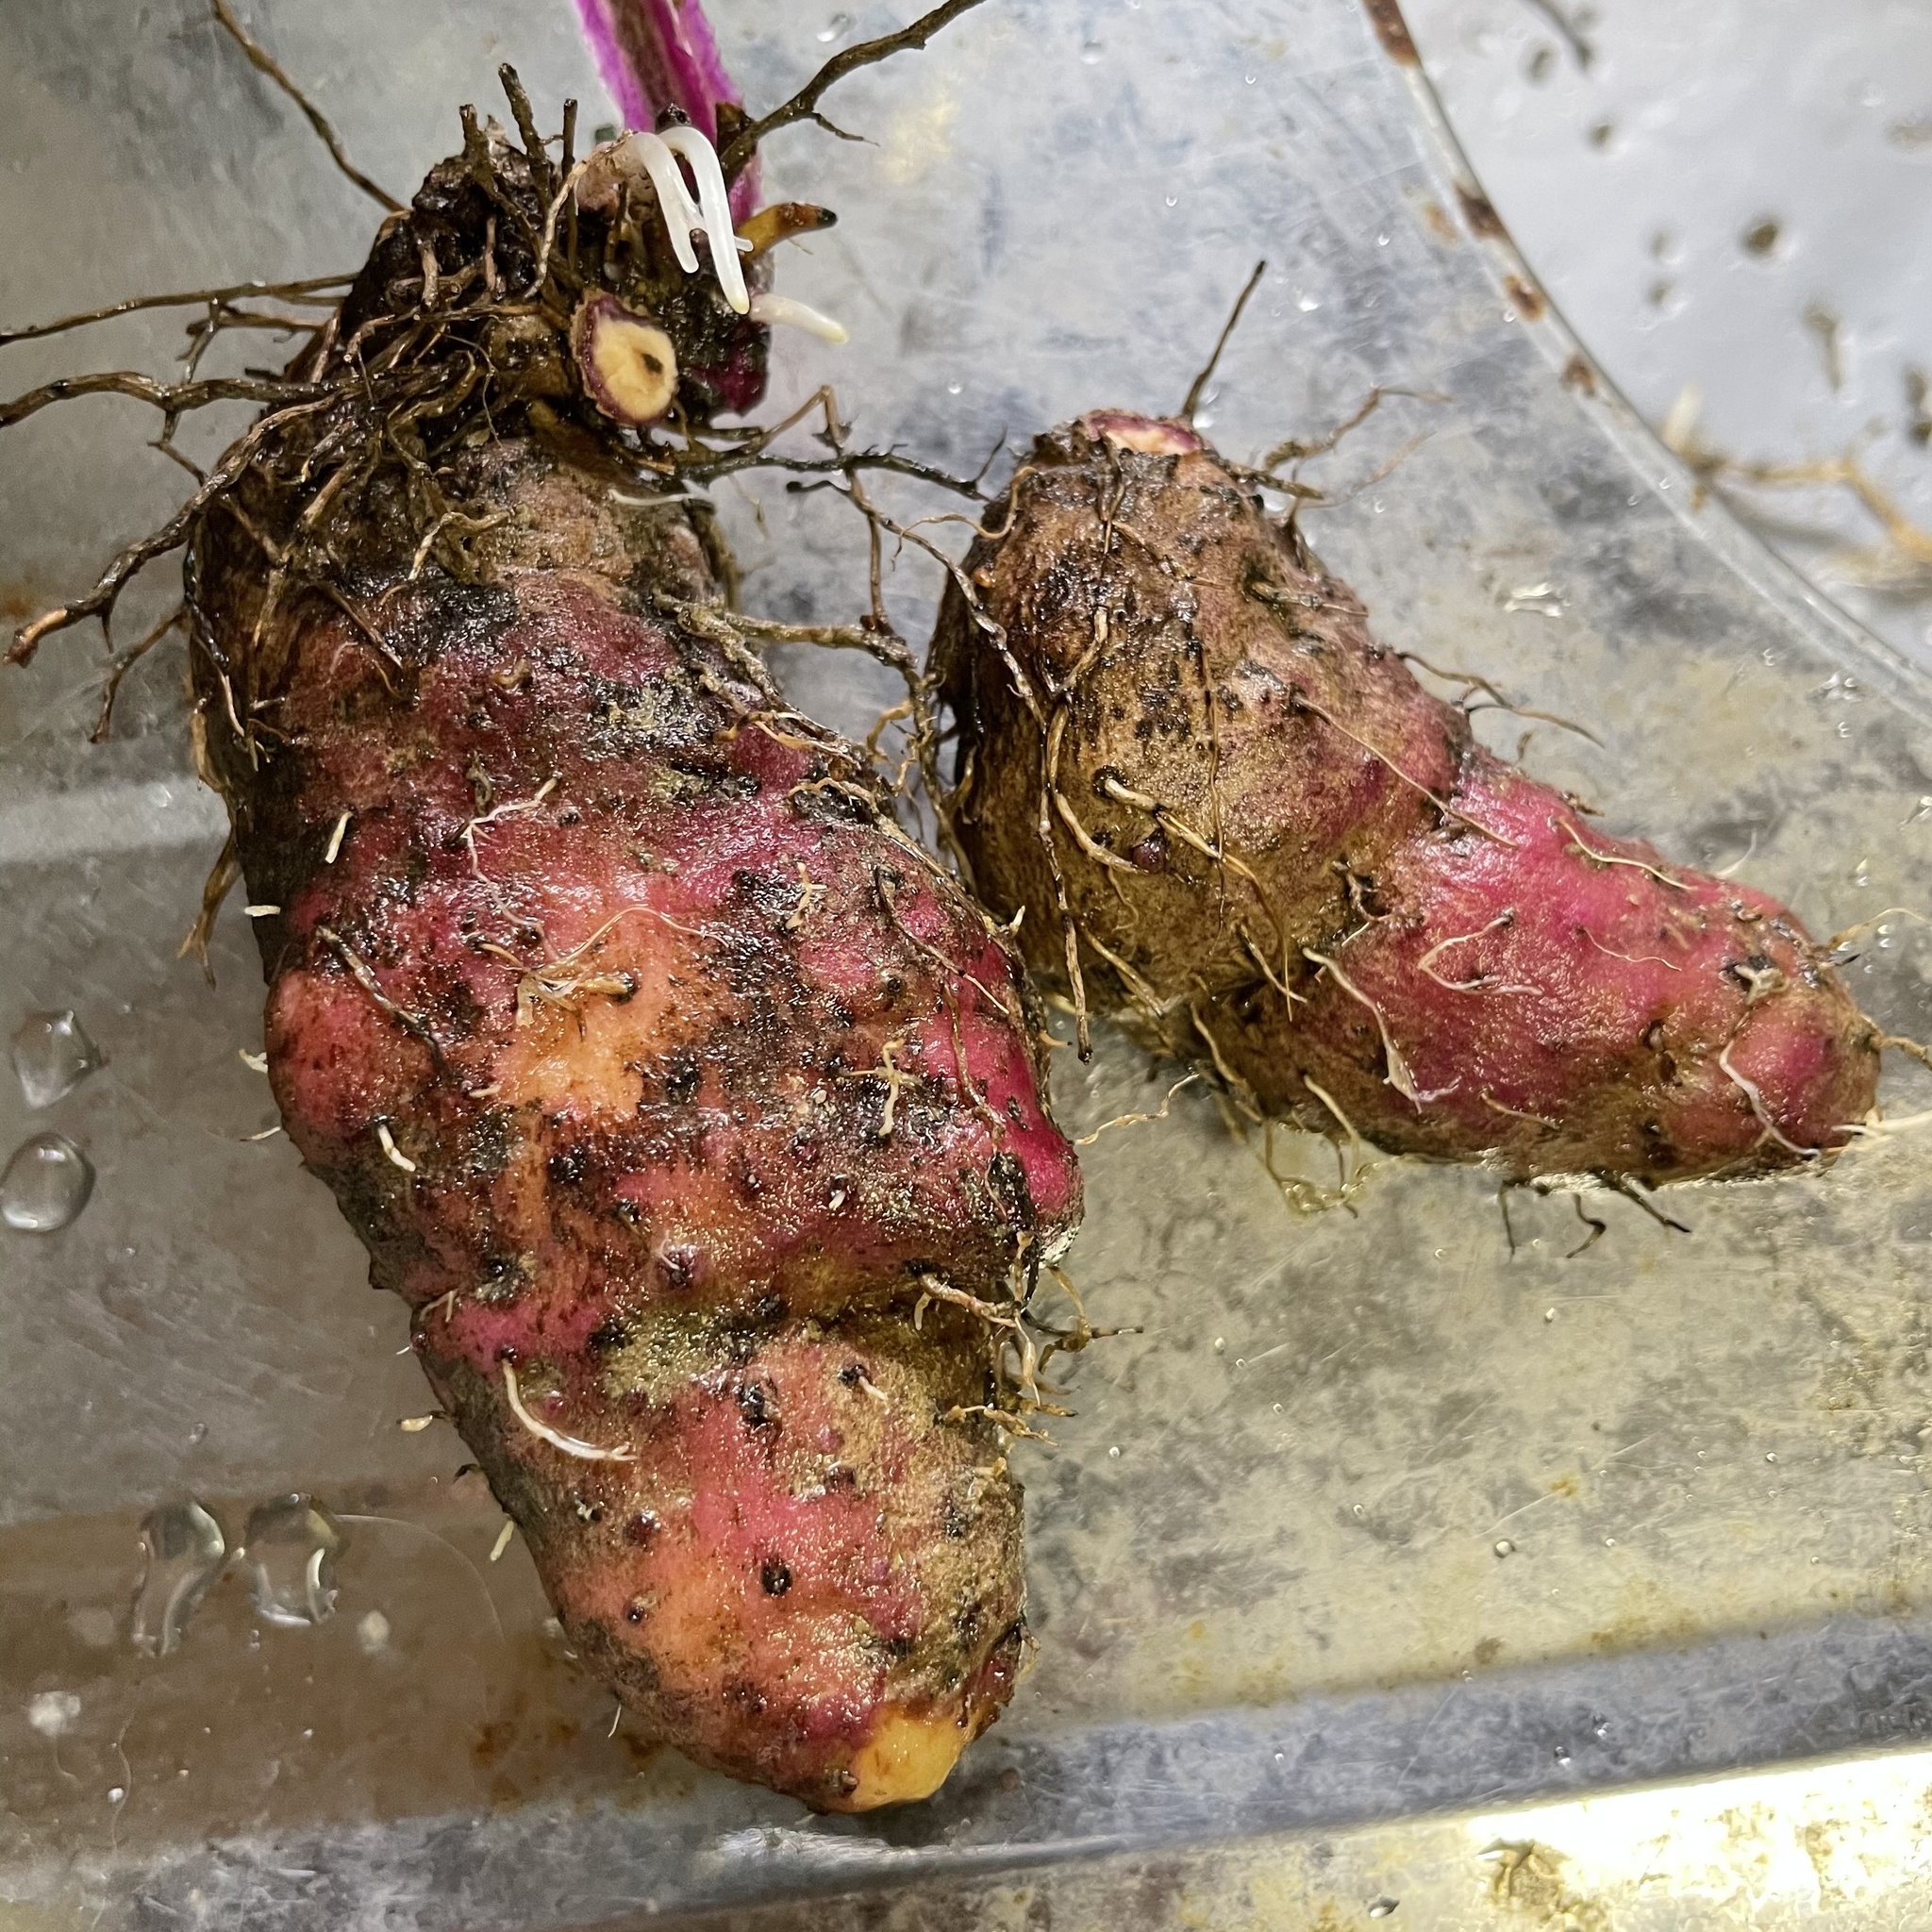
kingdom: Plantae
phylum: Tracheophyta
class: Liliopsida
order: Dioscoreales
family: Dioscoreaceae
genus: Dioscorea
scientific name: Dioscorea alata
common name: Water yam
